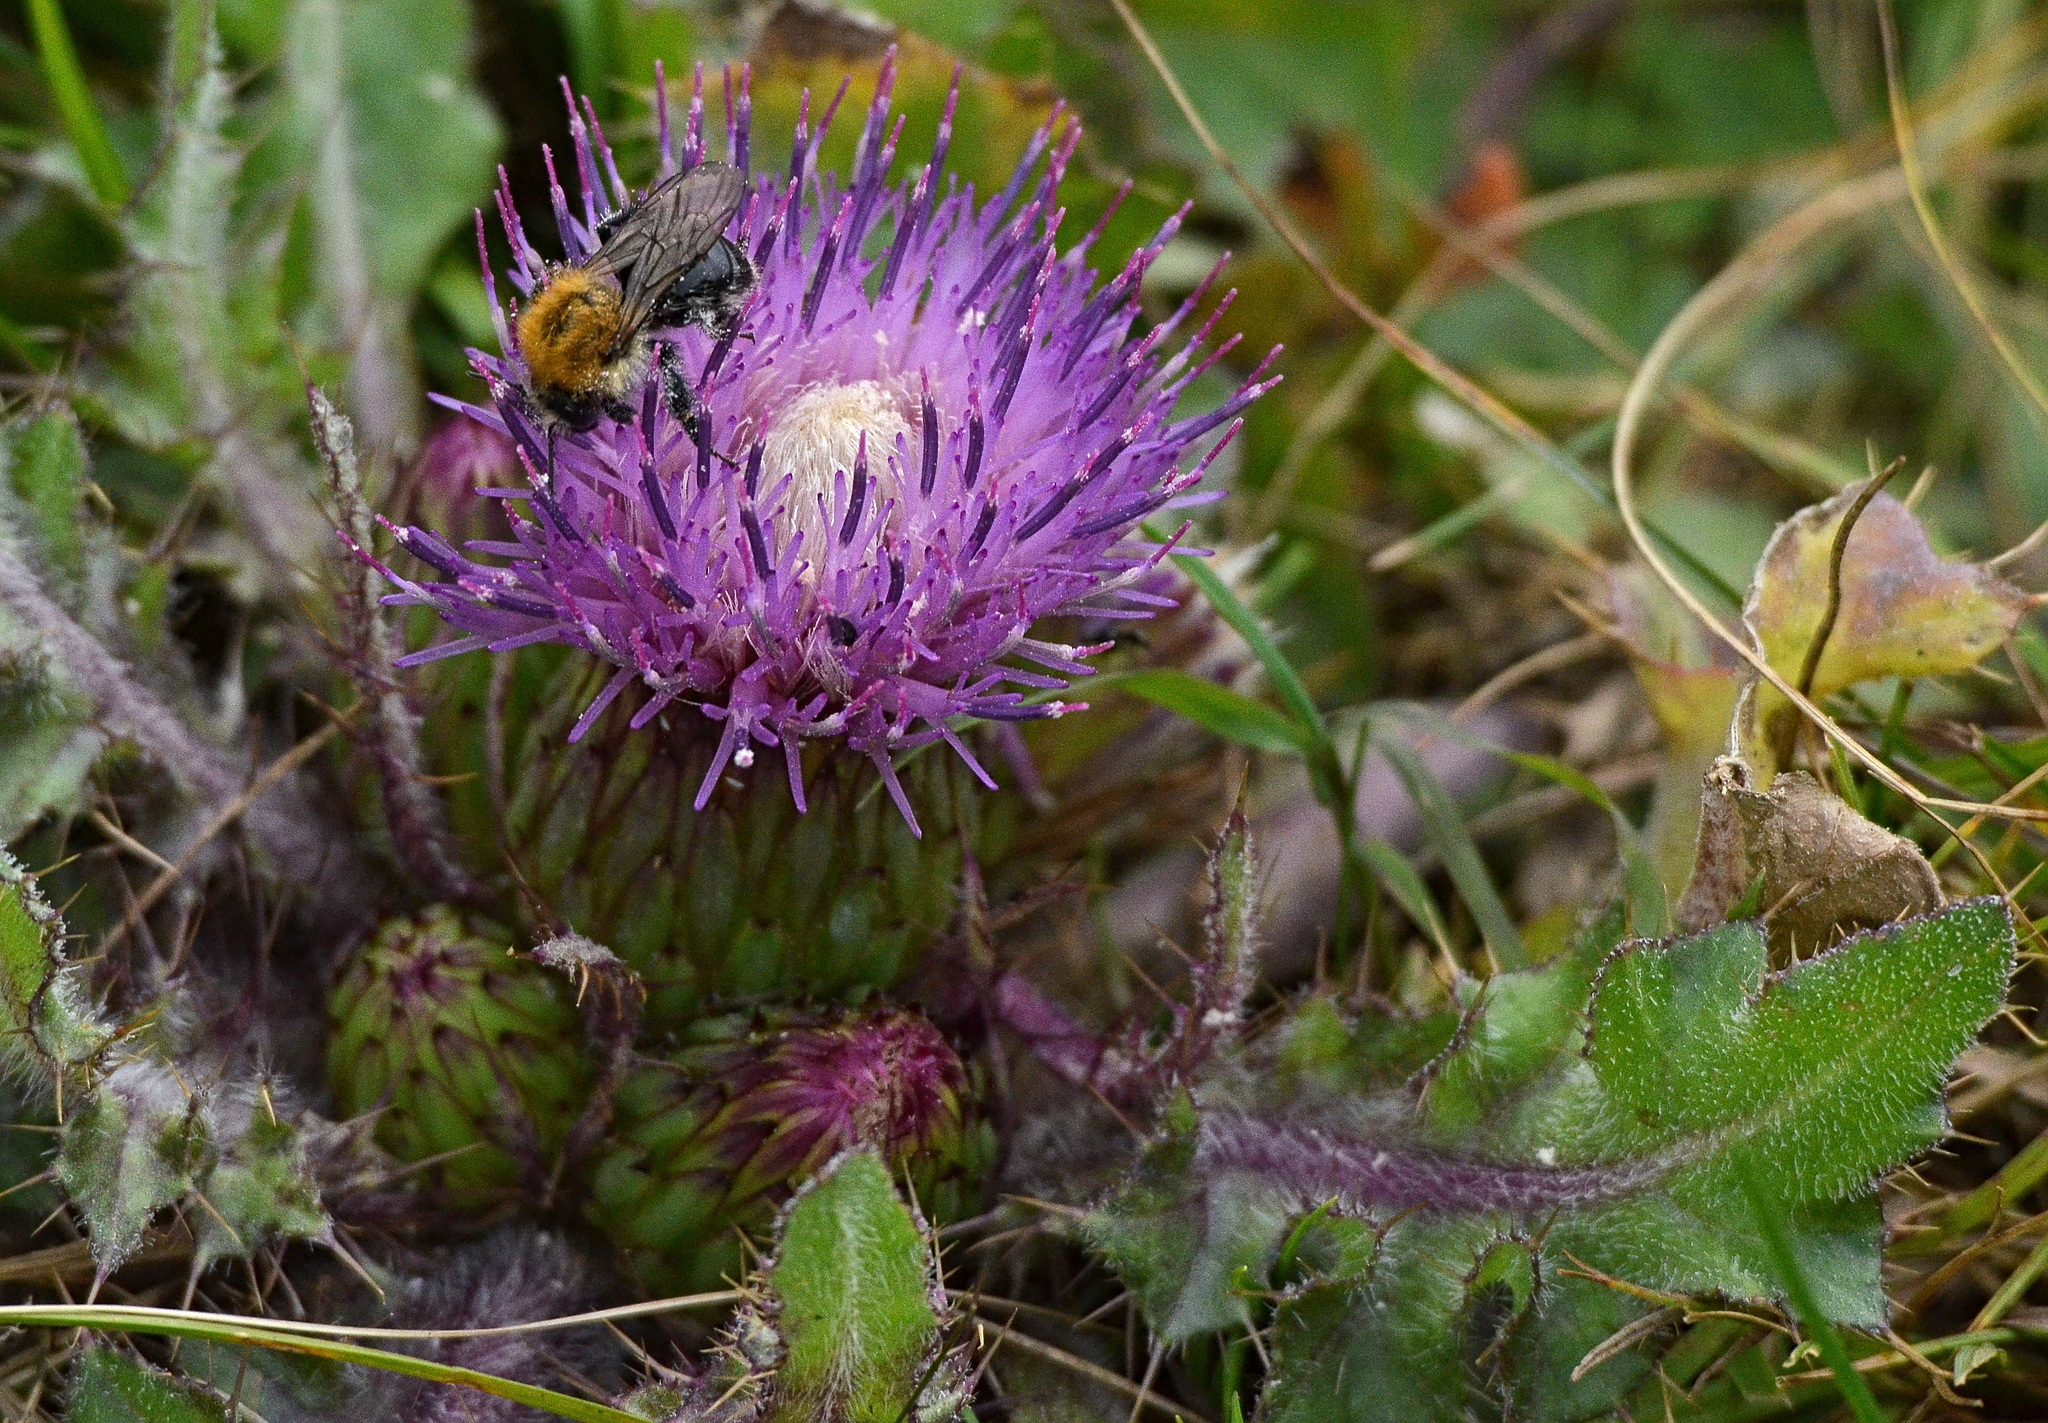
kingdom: Plantae
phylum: Tracheophyta
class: Magnoliopsida
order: Asterales
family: Asteraceae
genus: Cirsium
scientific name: Cirsium esculentum
